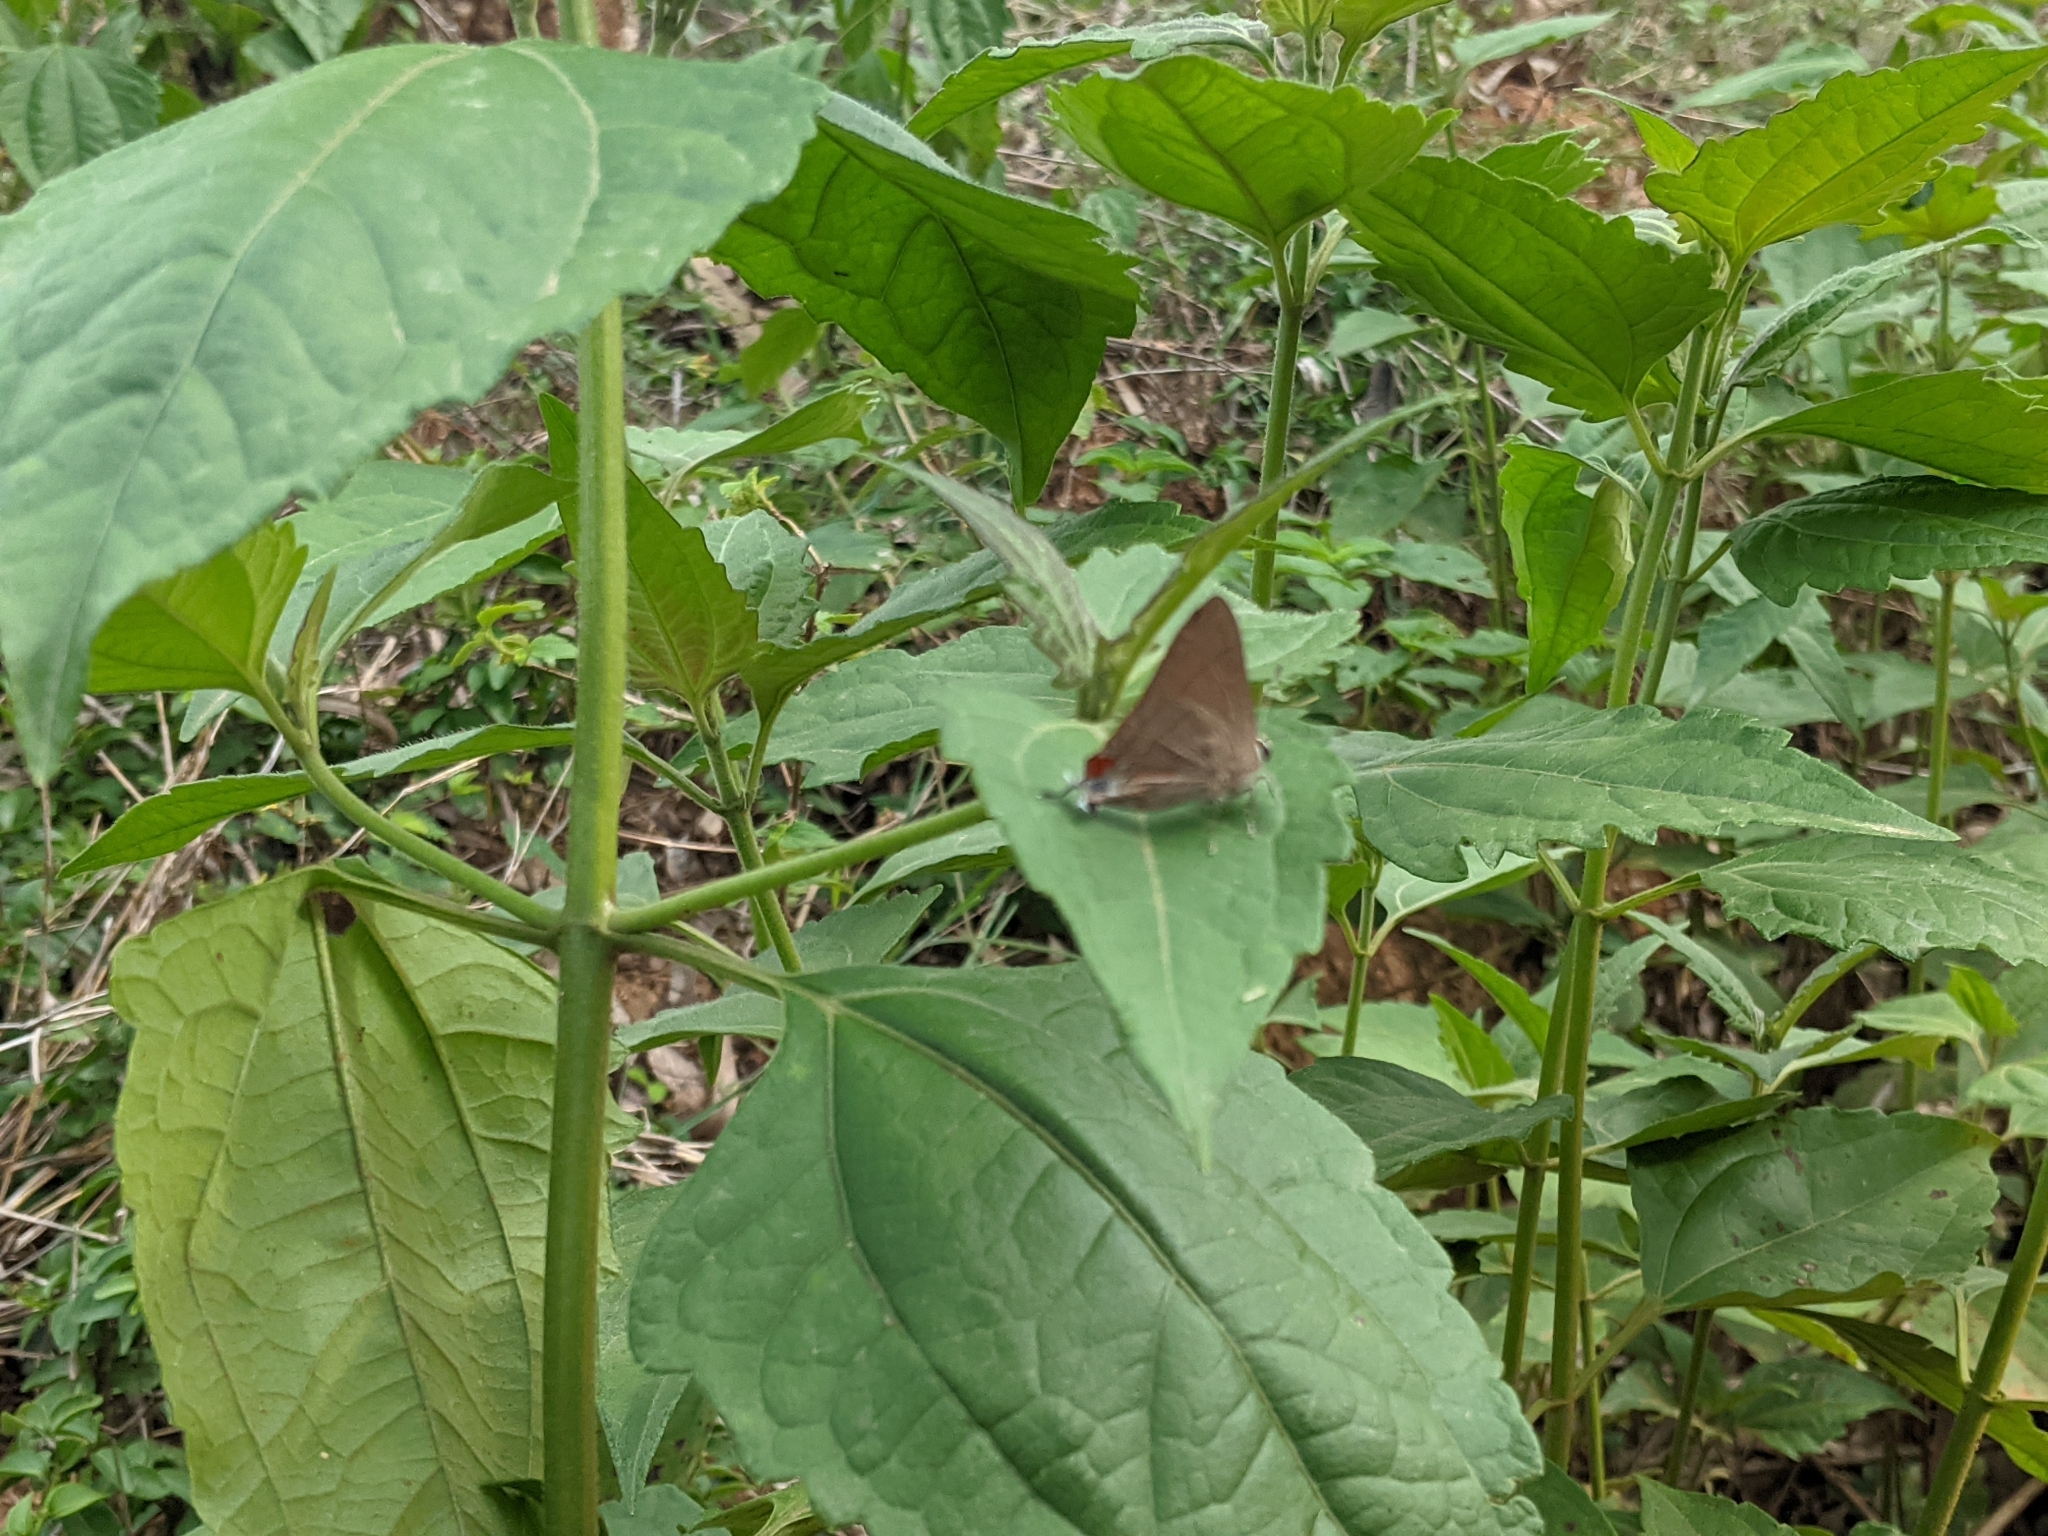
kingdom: Animalia
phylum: Arthropoda
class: Insecta
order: Lepidoptera
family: Lycaenidae
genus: Rapala
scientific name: Rapala iarbus
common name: Common red flash
